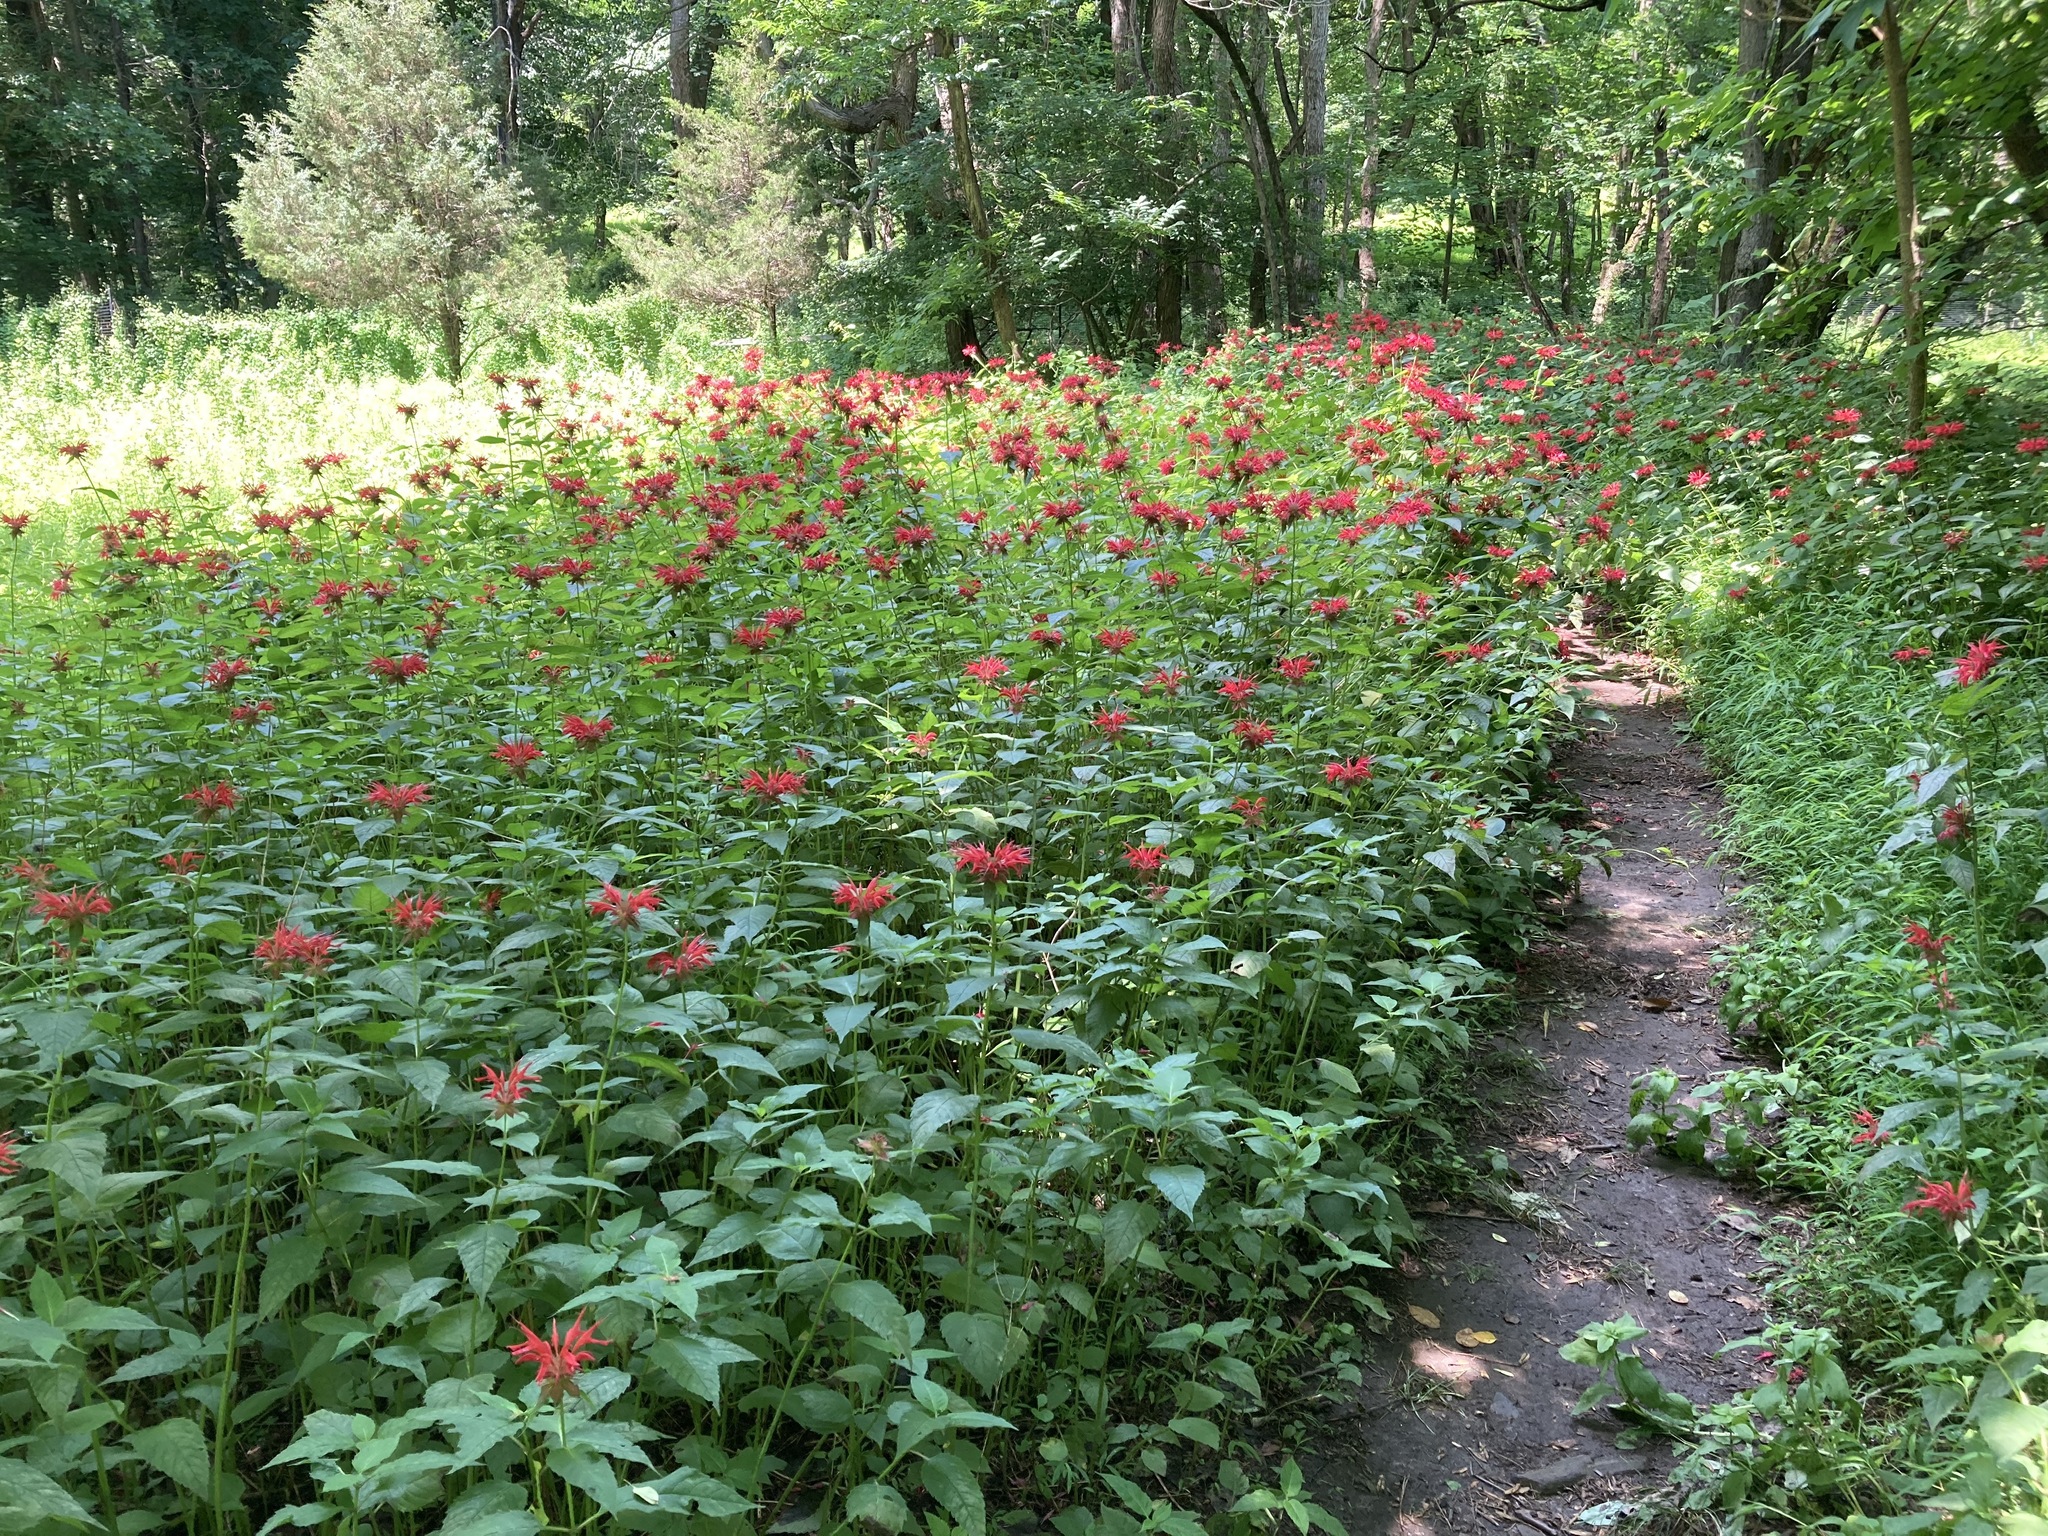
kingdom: Plantae
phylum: Tracheophyta
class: Magnoliopsida
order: Lamiales
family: Lamiaceae
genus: Monarda
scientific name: Monarda didyma
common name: Beebalm
